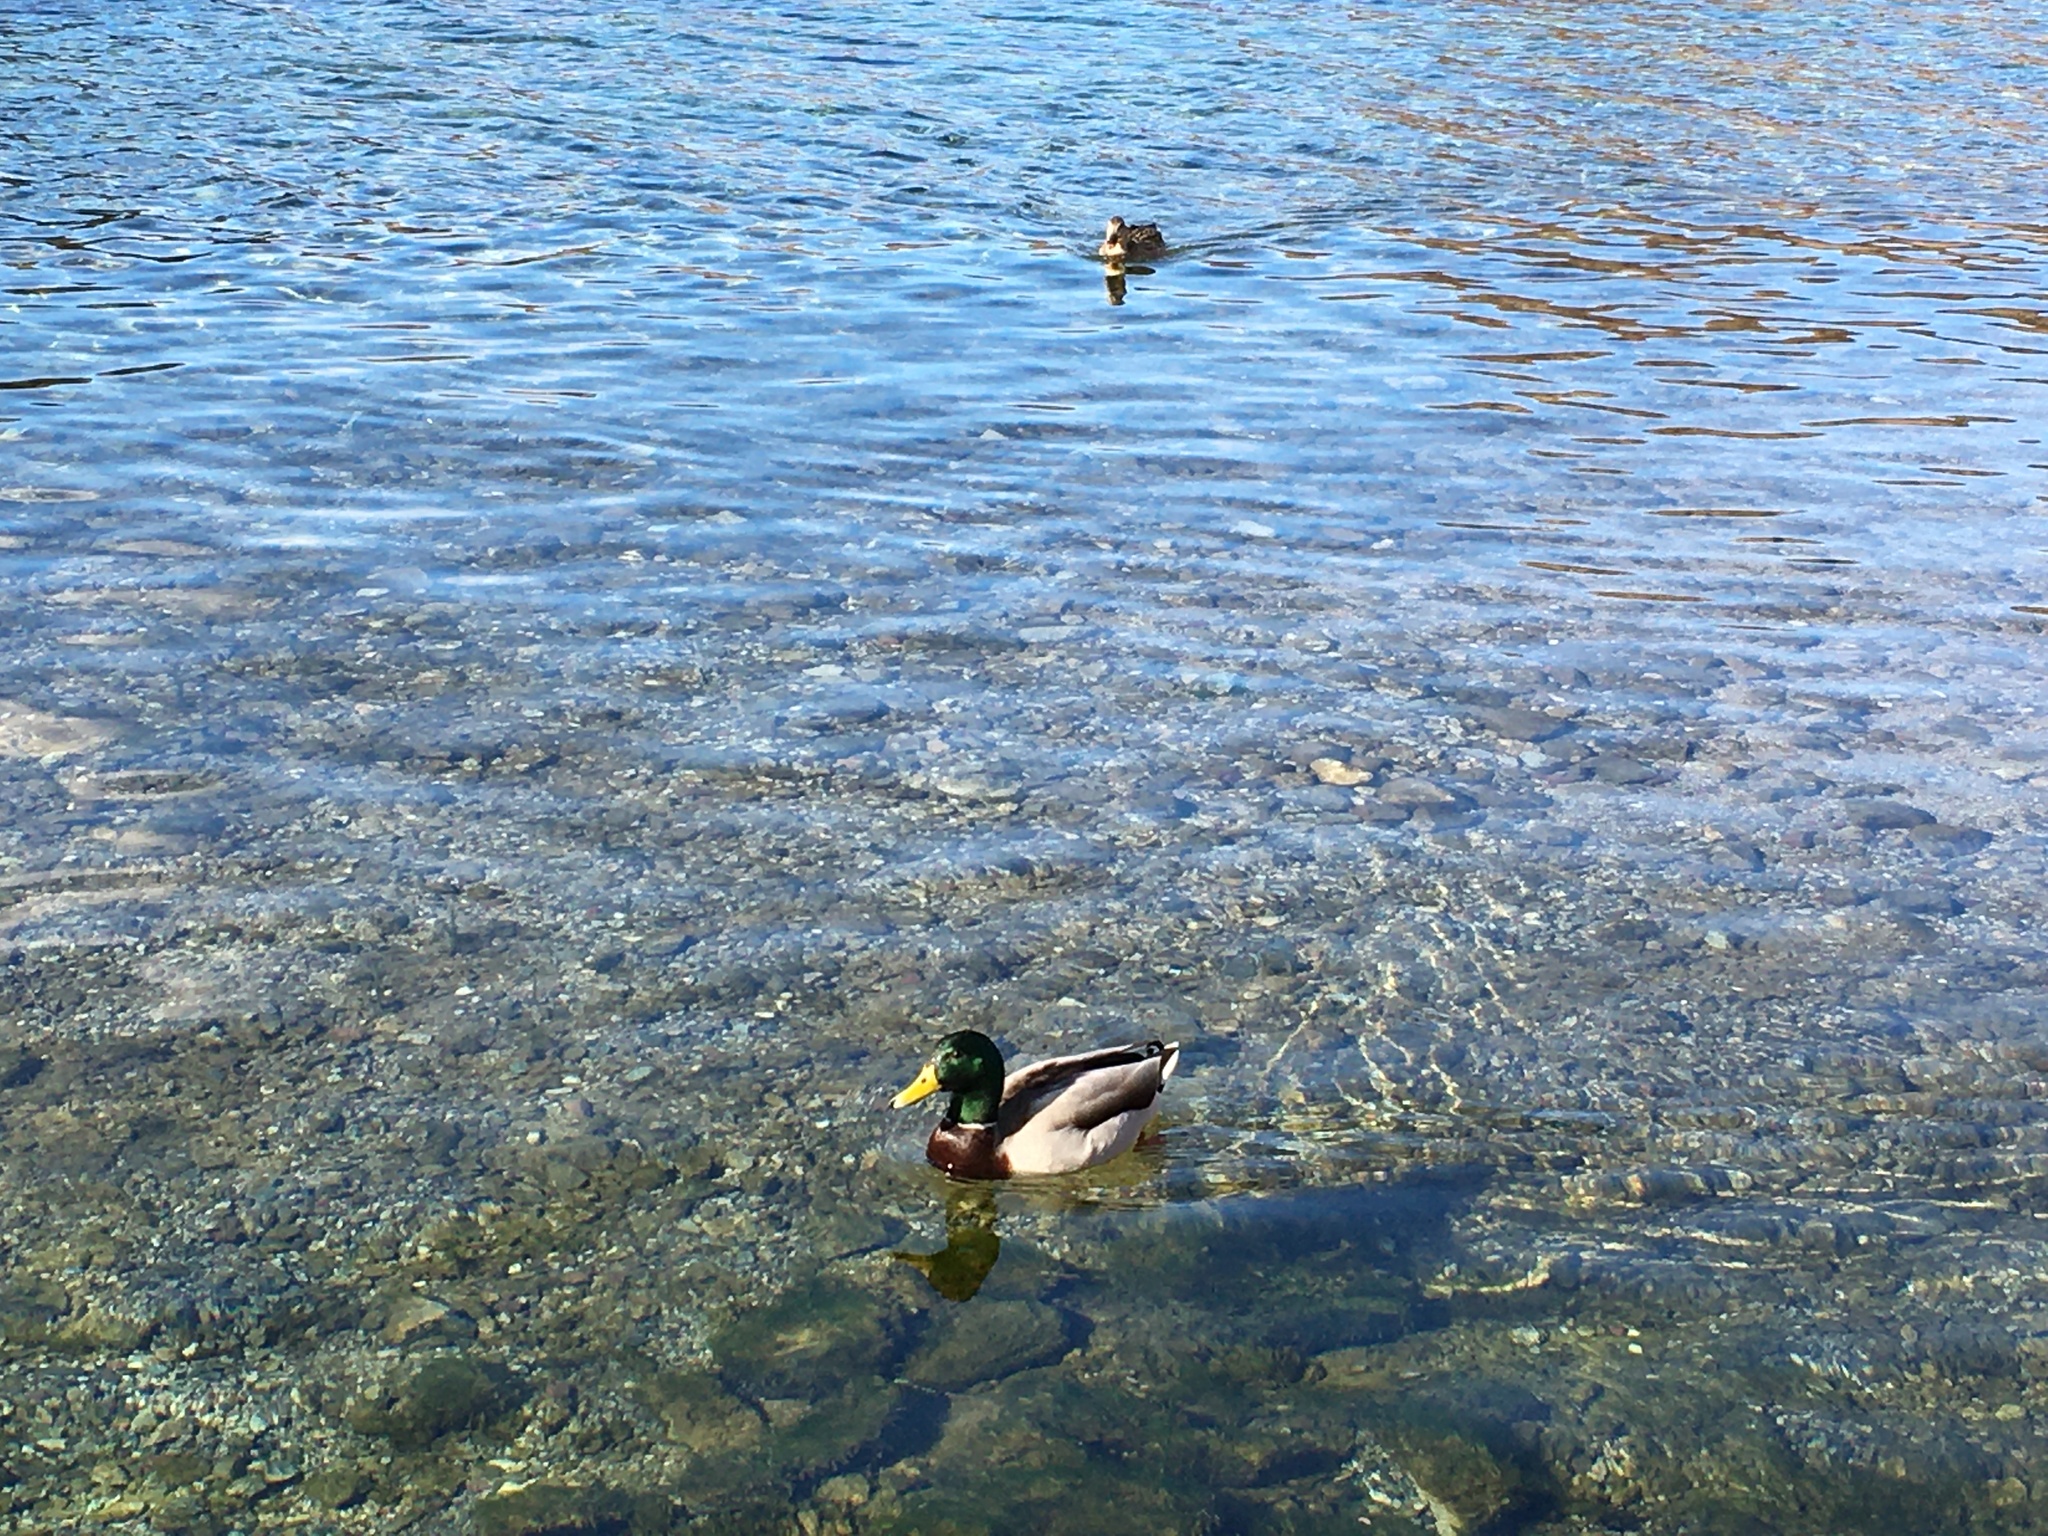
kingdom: Animalia
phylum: Chordata
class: Aves
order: Anseriformes
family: Anatidae
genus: Anas
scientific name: Anas platyrhynchos
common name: Mallard
